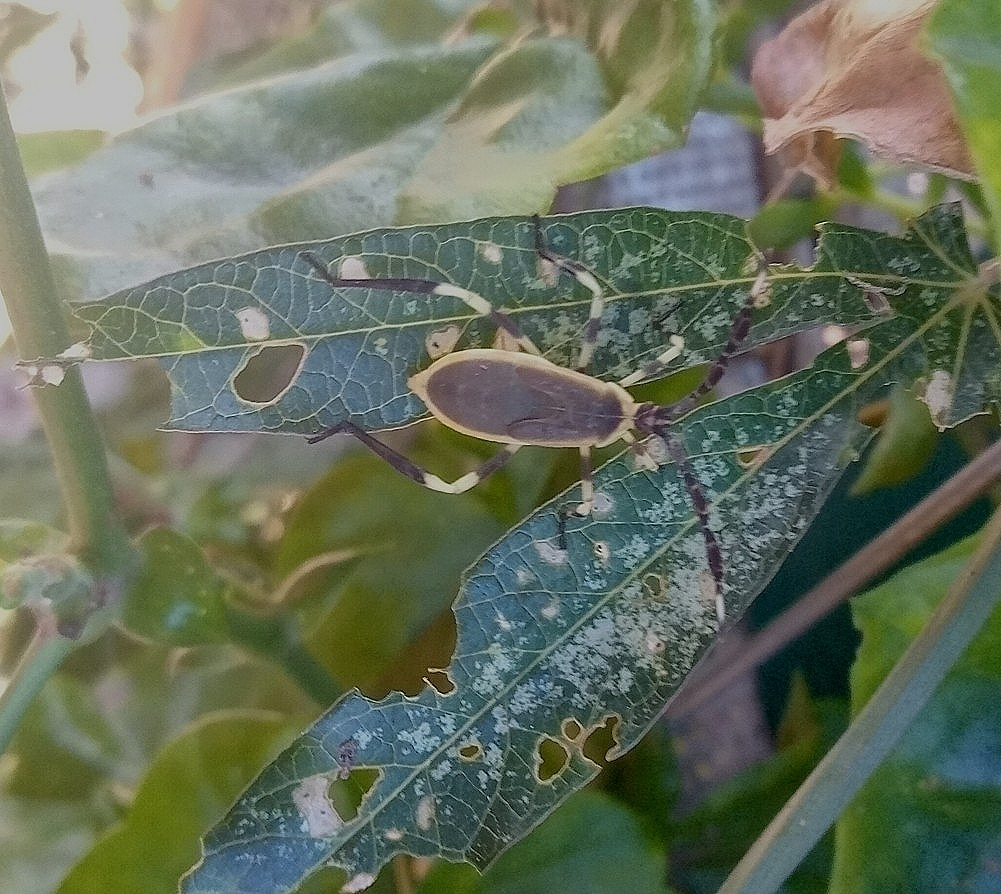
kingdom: Animalia
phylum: Arthropoda
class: Insecta
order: Hemiptera
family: Coreidae
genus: Holhymenia
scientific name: Holhymenia histrio
